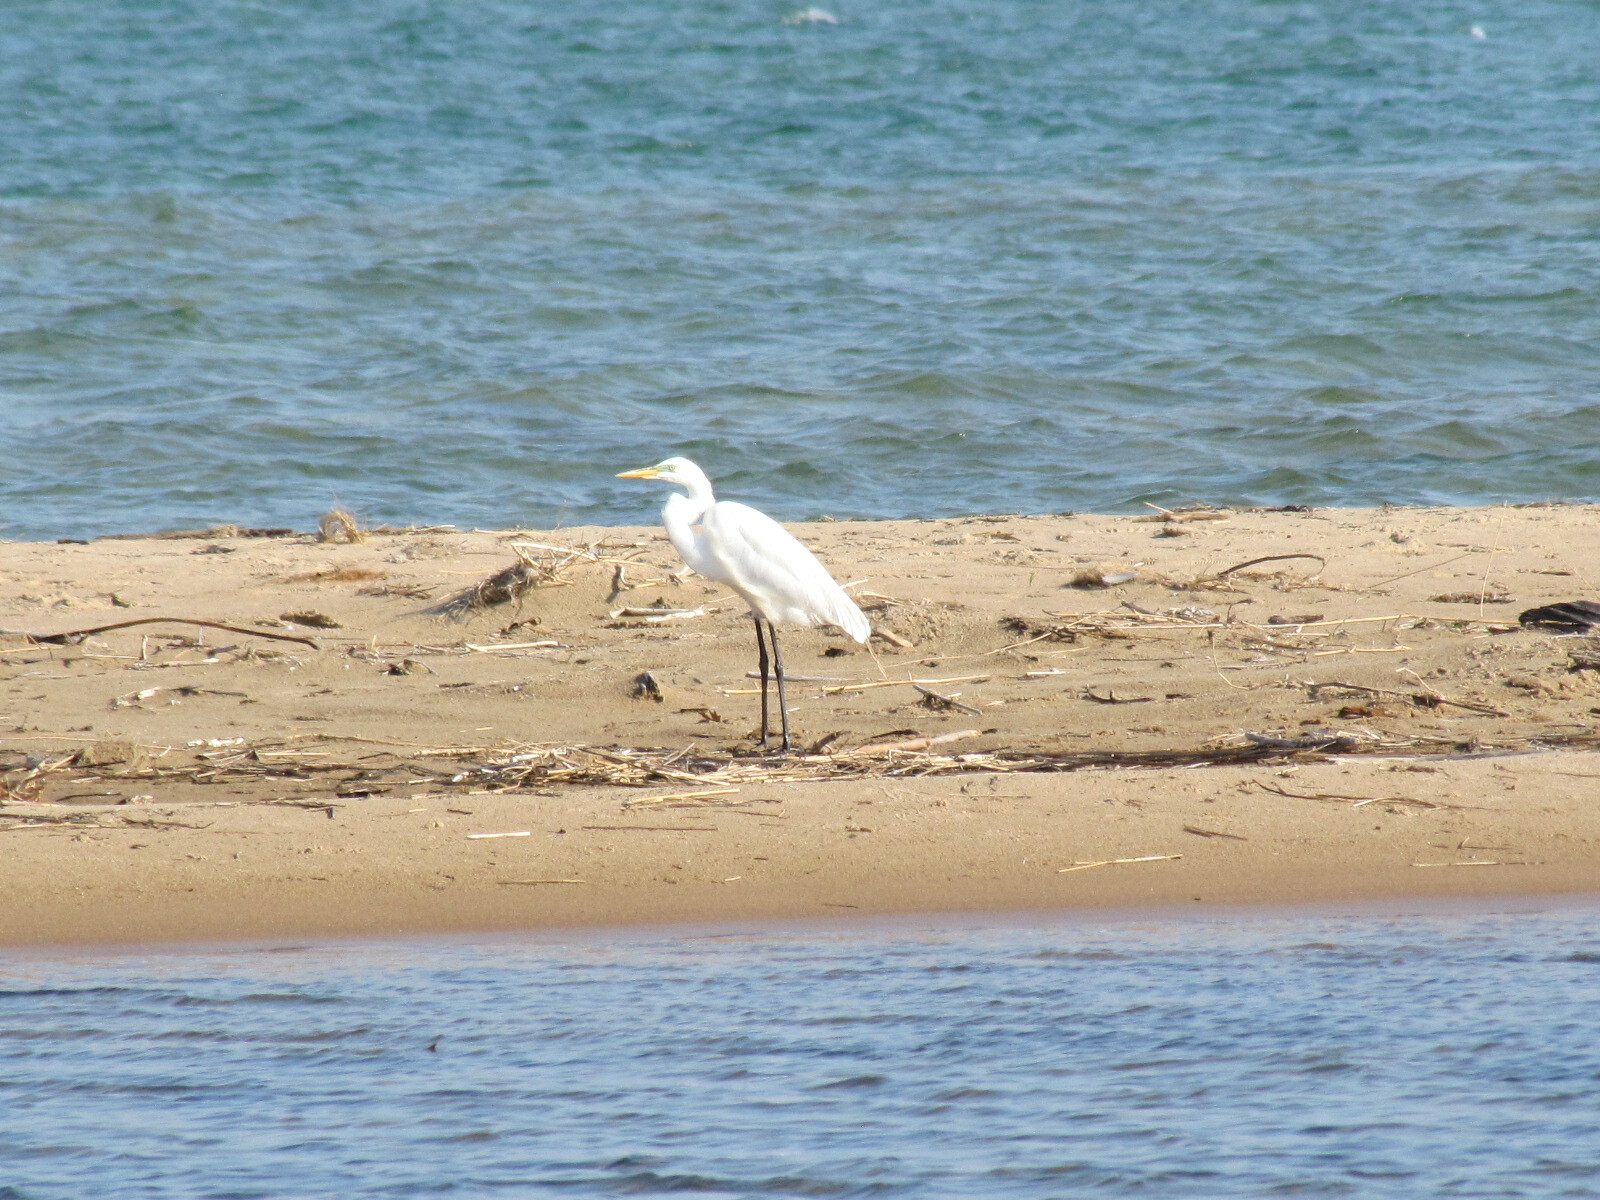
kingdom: Animalia
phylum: Chordata
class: Aves
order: Pelecaniformes
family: Ardeidae
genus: Ardea
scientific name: Ardea alba
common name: Great egret
